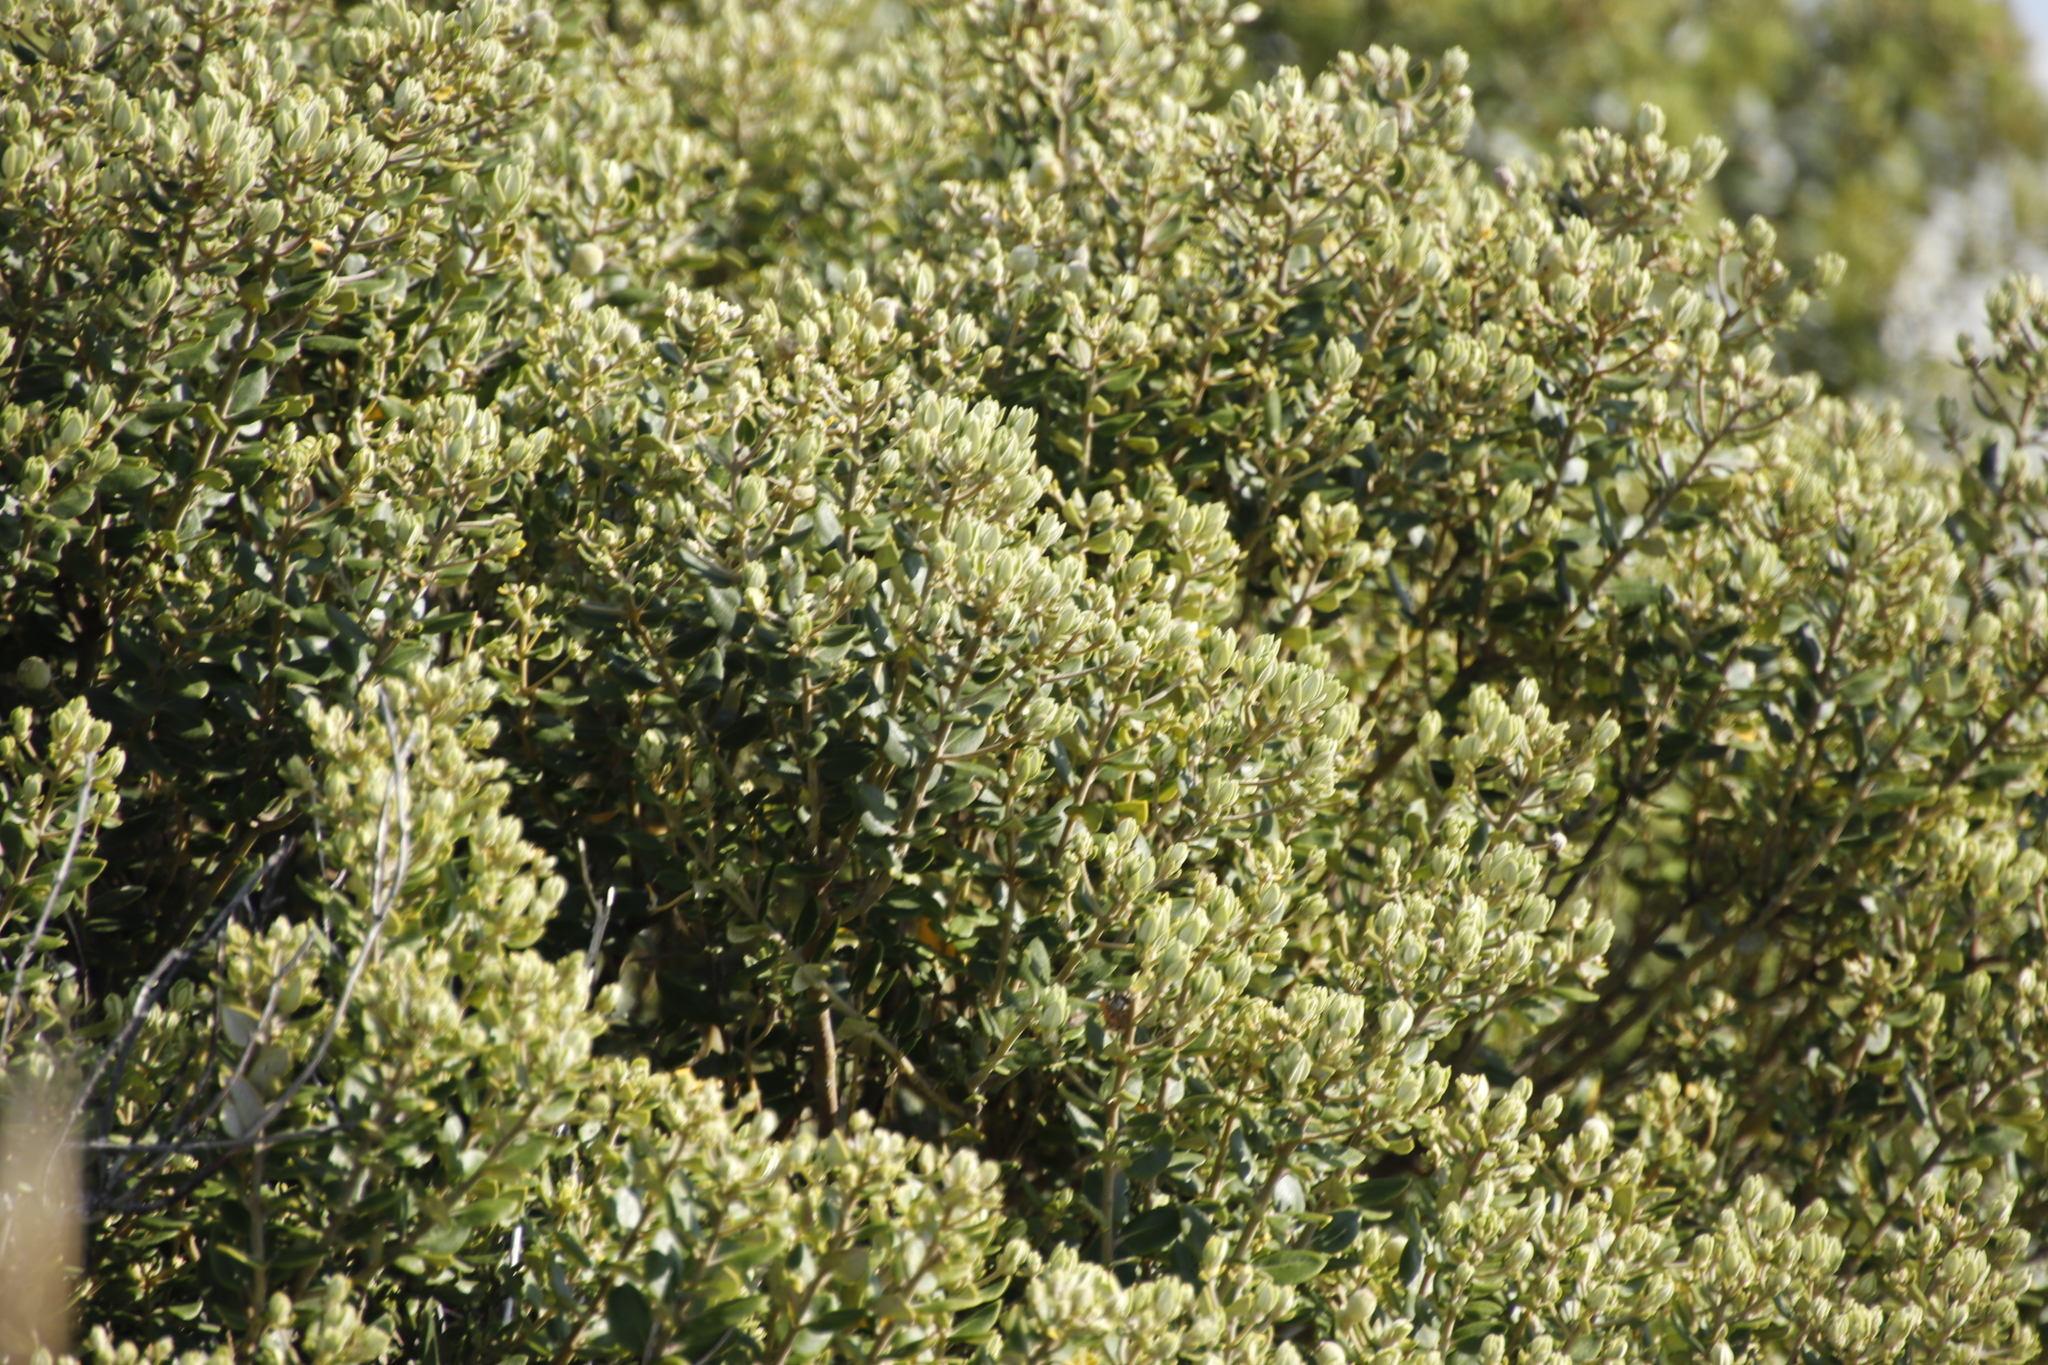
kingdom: Plantae
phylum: Tracheophyta
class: Magnoliopsida
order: Rosales
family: Rhamnaceae
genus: Phylica
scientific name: Phylica buxifolia
